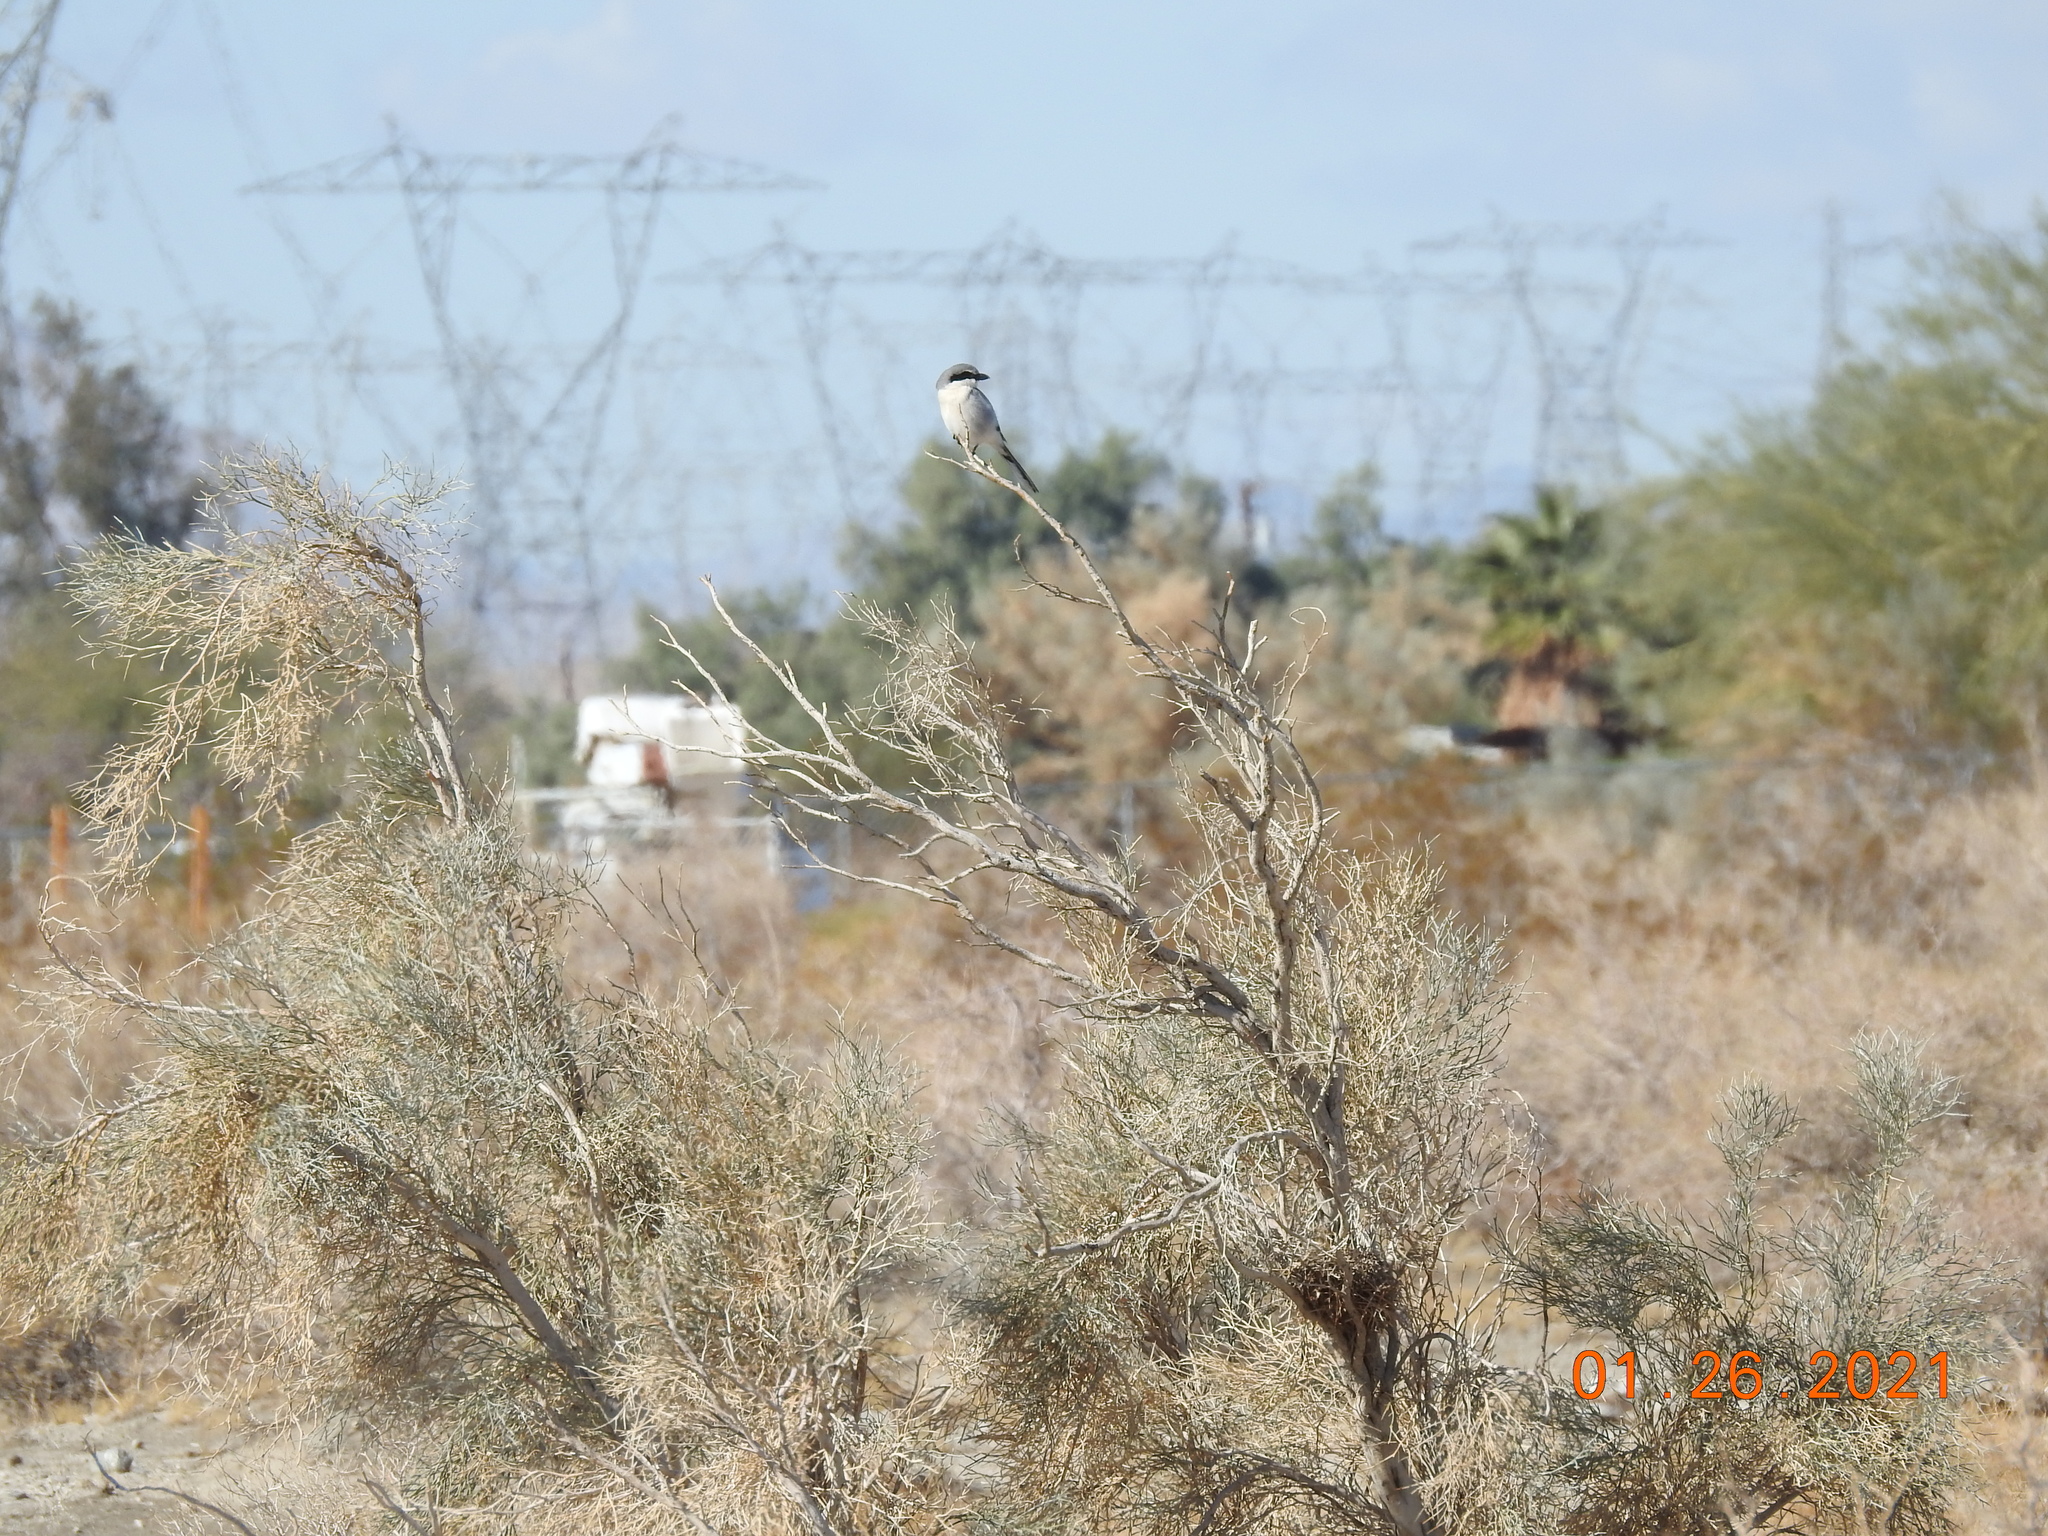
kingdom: Animalia
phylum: Chordata
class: Aves
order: Passeriformes
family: Laniidae
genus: Lanius
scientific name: Lanius ludovicianus
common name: Loggerhead shrike
